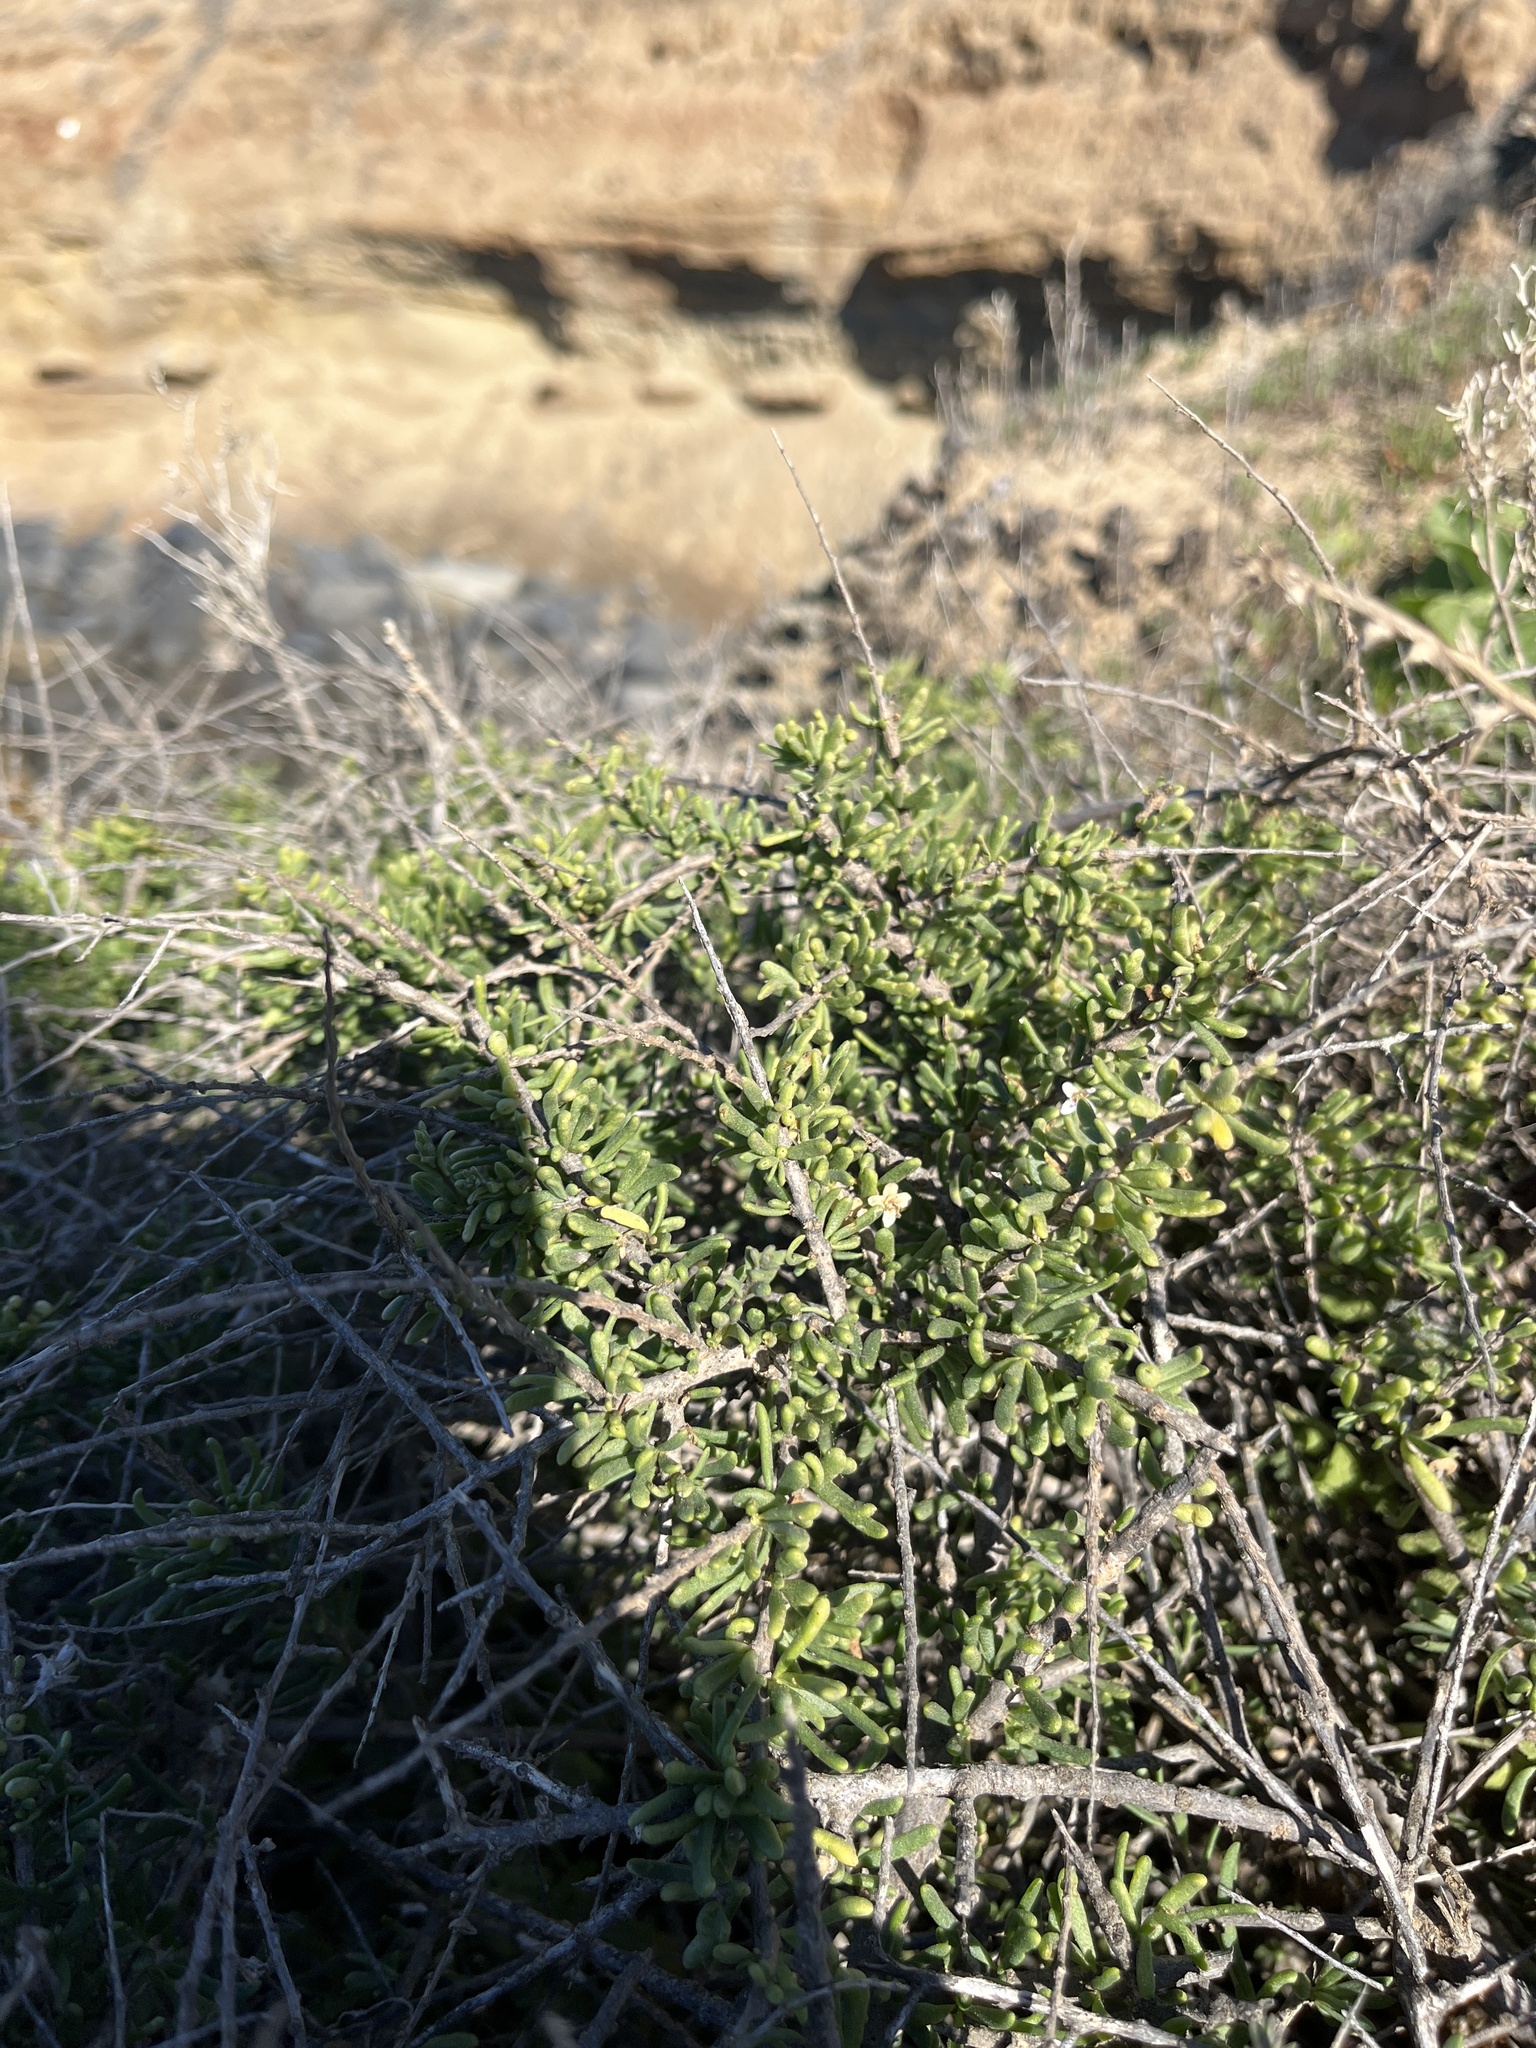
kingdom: Plantae
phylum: Tracheophyta
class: Magnoliopsida
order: Solanales
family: Solanaceae
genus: Lycium
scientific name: Lycium californicum
